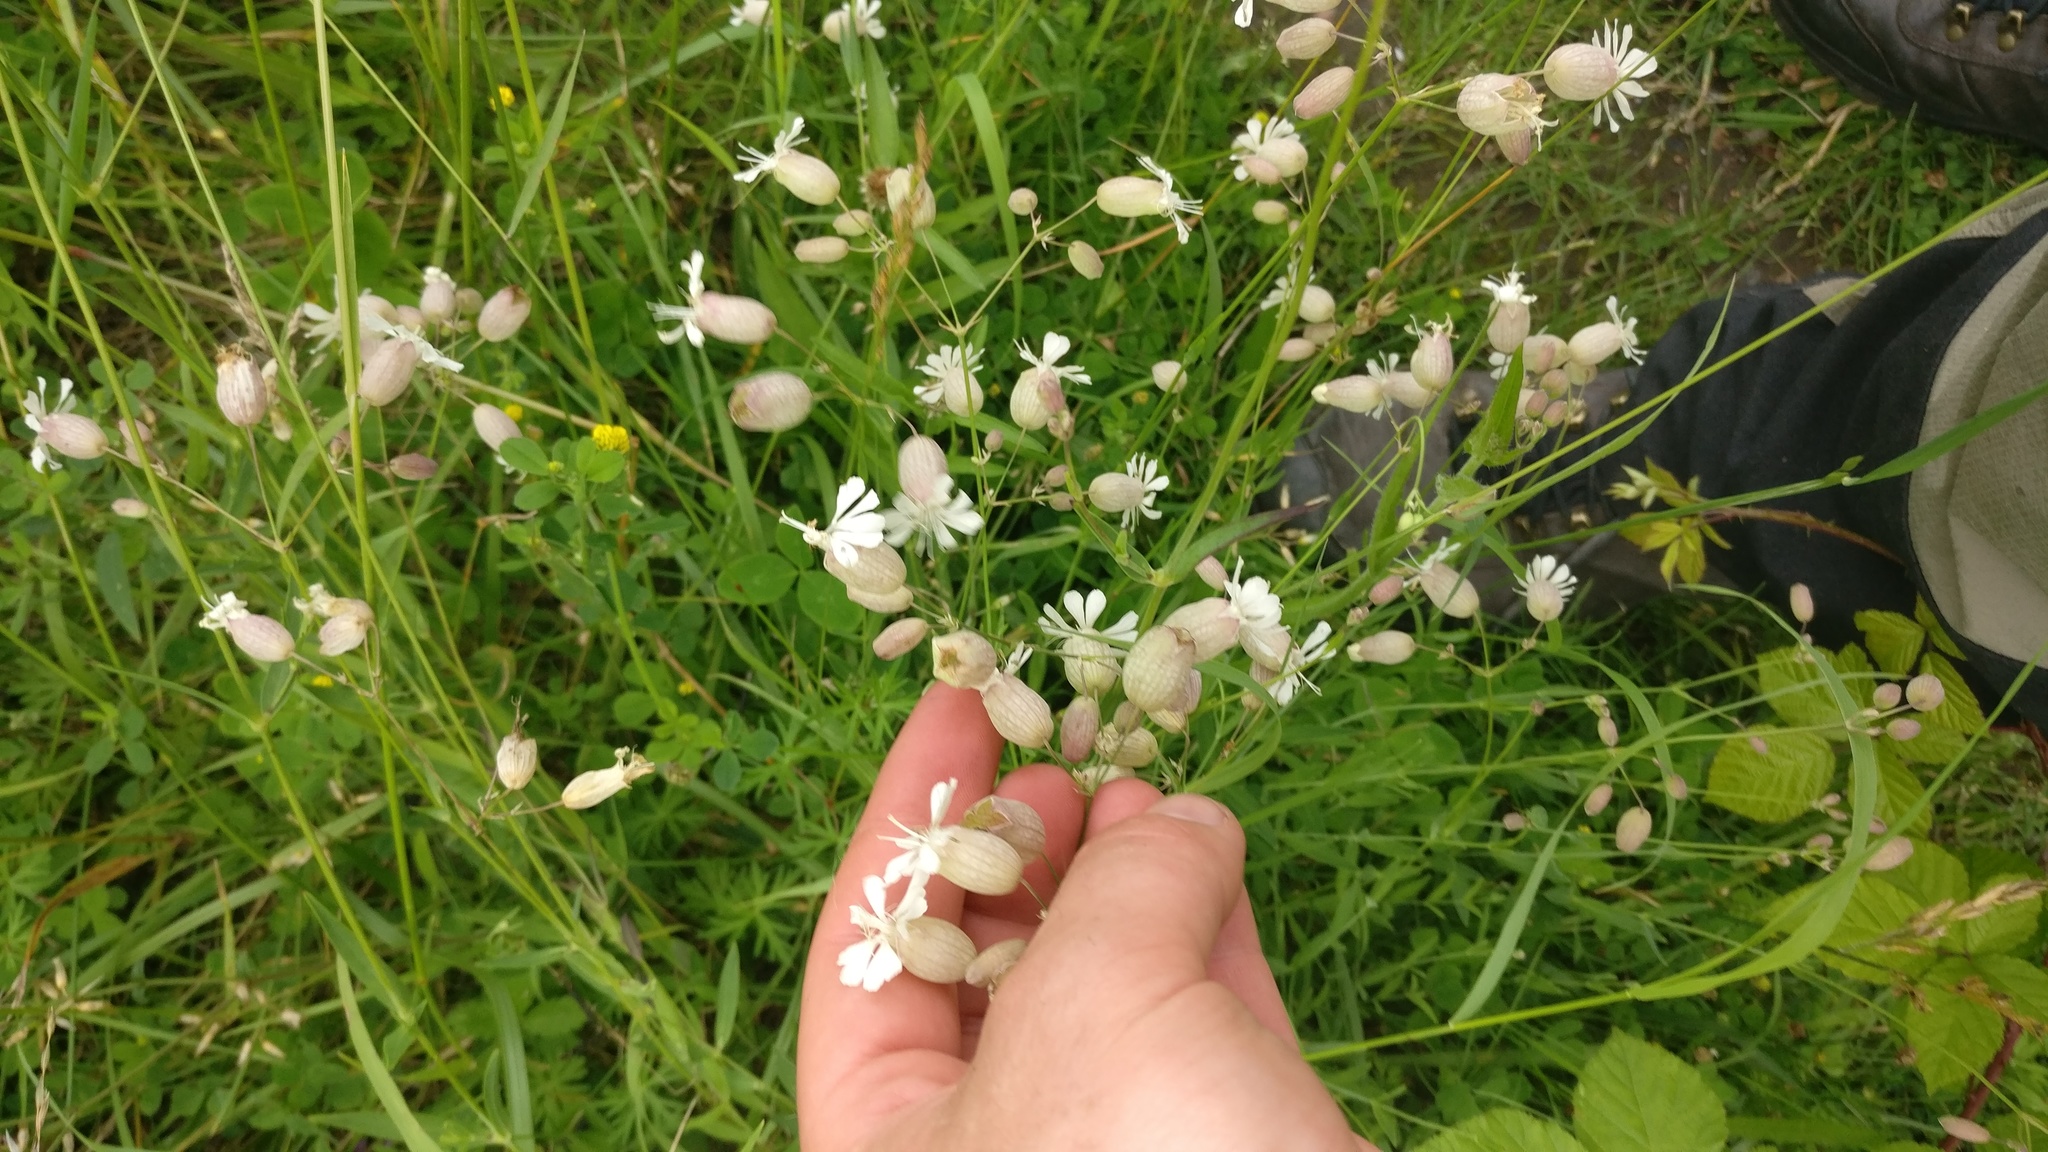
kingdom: Plantae
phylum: Tracheophyta
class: Magnoliopsida
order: Caryophyllales
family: Caryophyllaceae
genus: Silene
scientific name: Silene vulgaris
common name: Bladder campion
